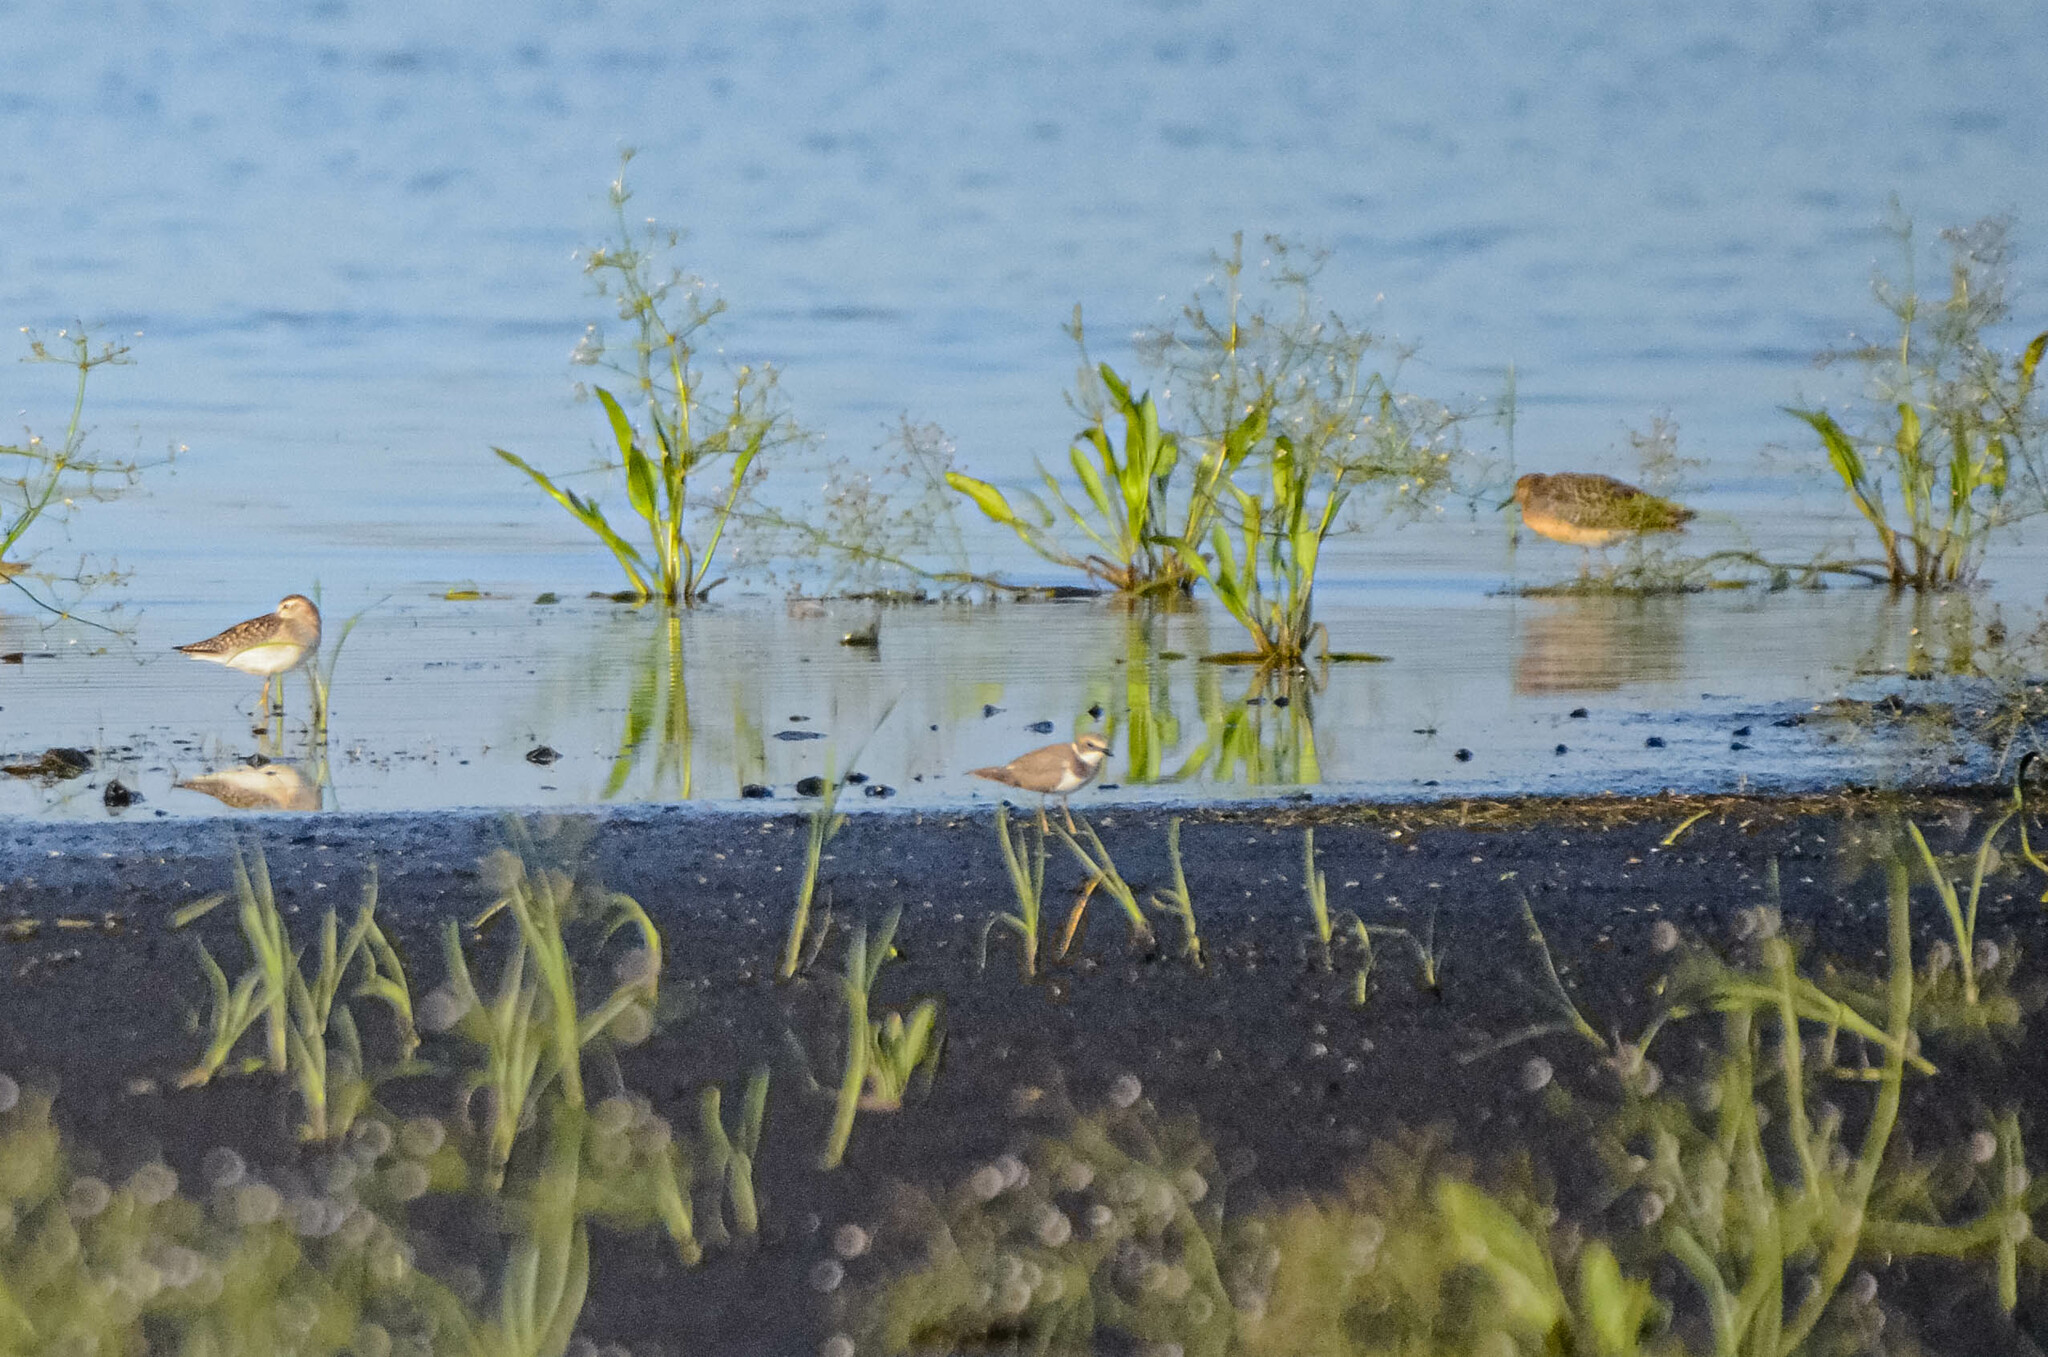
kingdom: Animalia
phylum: Chordata
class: Aves
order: Charadriiformes
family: Charadriidae
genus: Charadrius
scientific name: Charadrius dubius
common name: Little ringed plover
